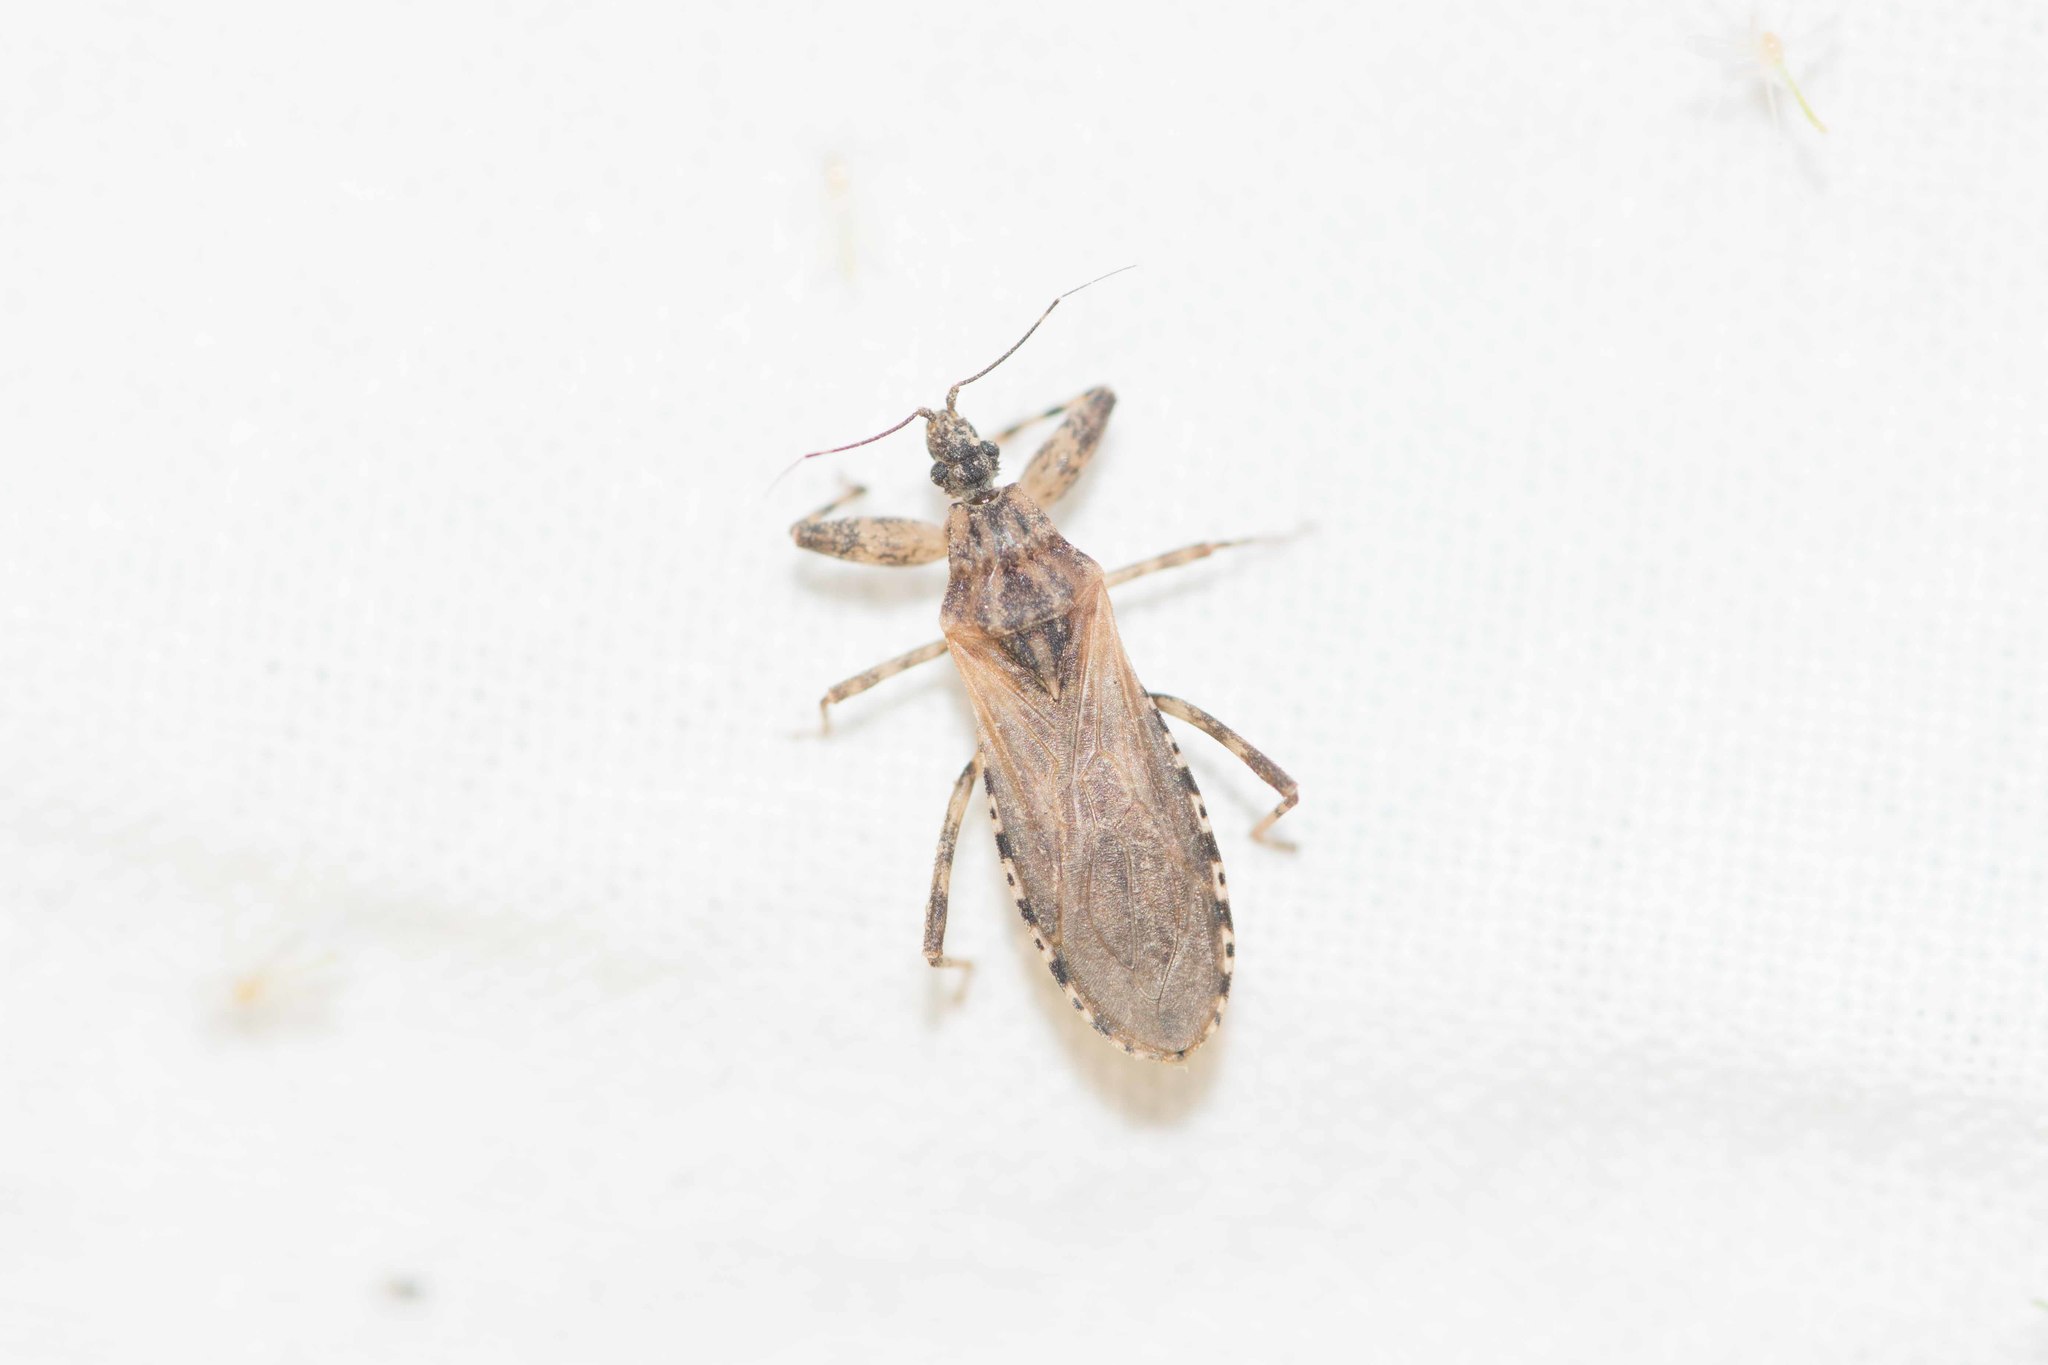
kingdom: Animalia
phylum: Arthropoda
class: Insecta
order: Hemiptera
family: Reduviidae
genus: Oncocephalus
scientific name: Oncocephalus squalidus
